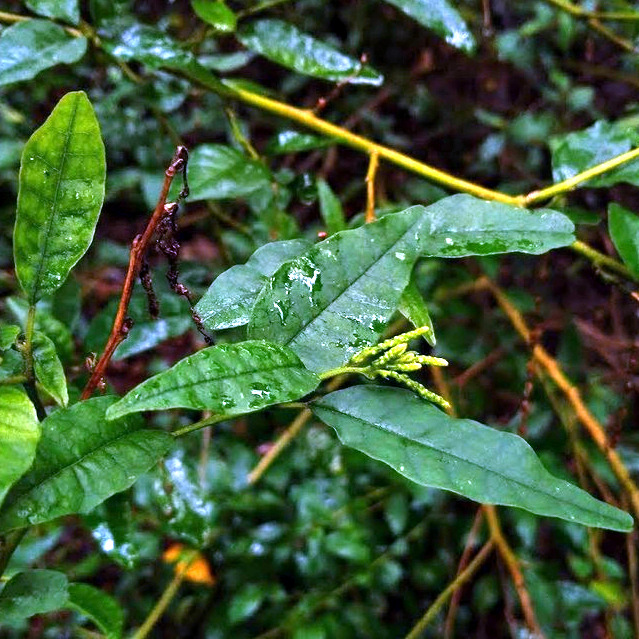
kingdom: Plantae
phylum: Tracheophyta
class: Magnoliopsida
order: Caryophyllales
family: Phytolaccaceae
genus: Monococcus
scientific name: Monococcus echinophorus
